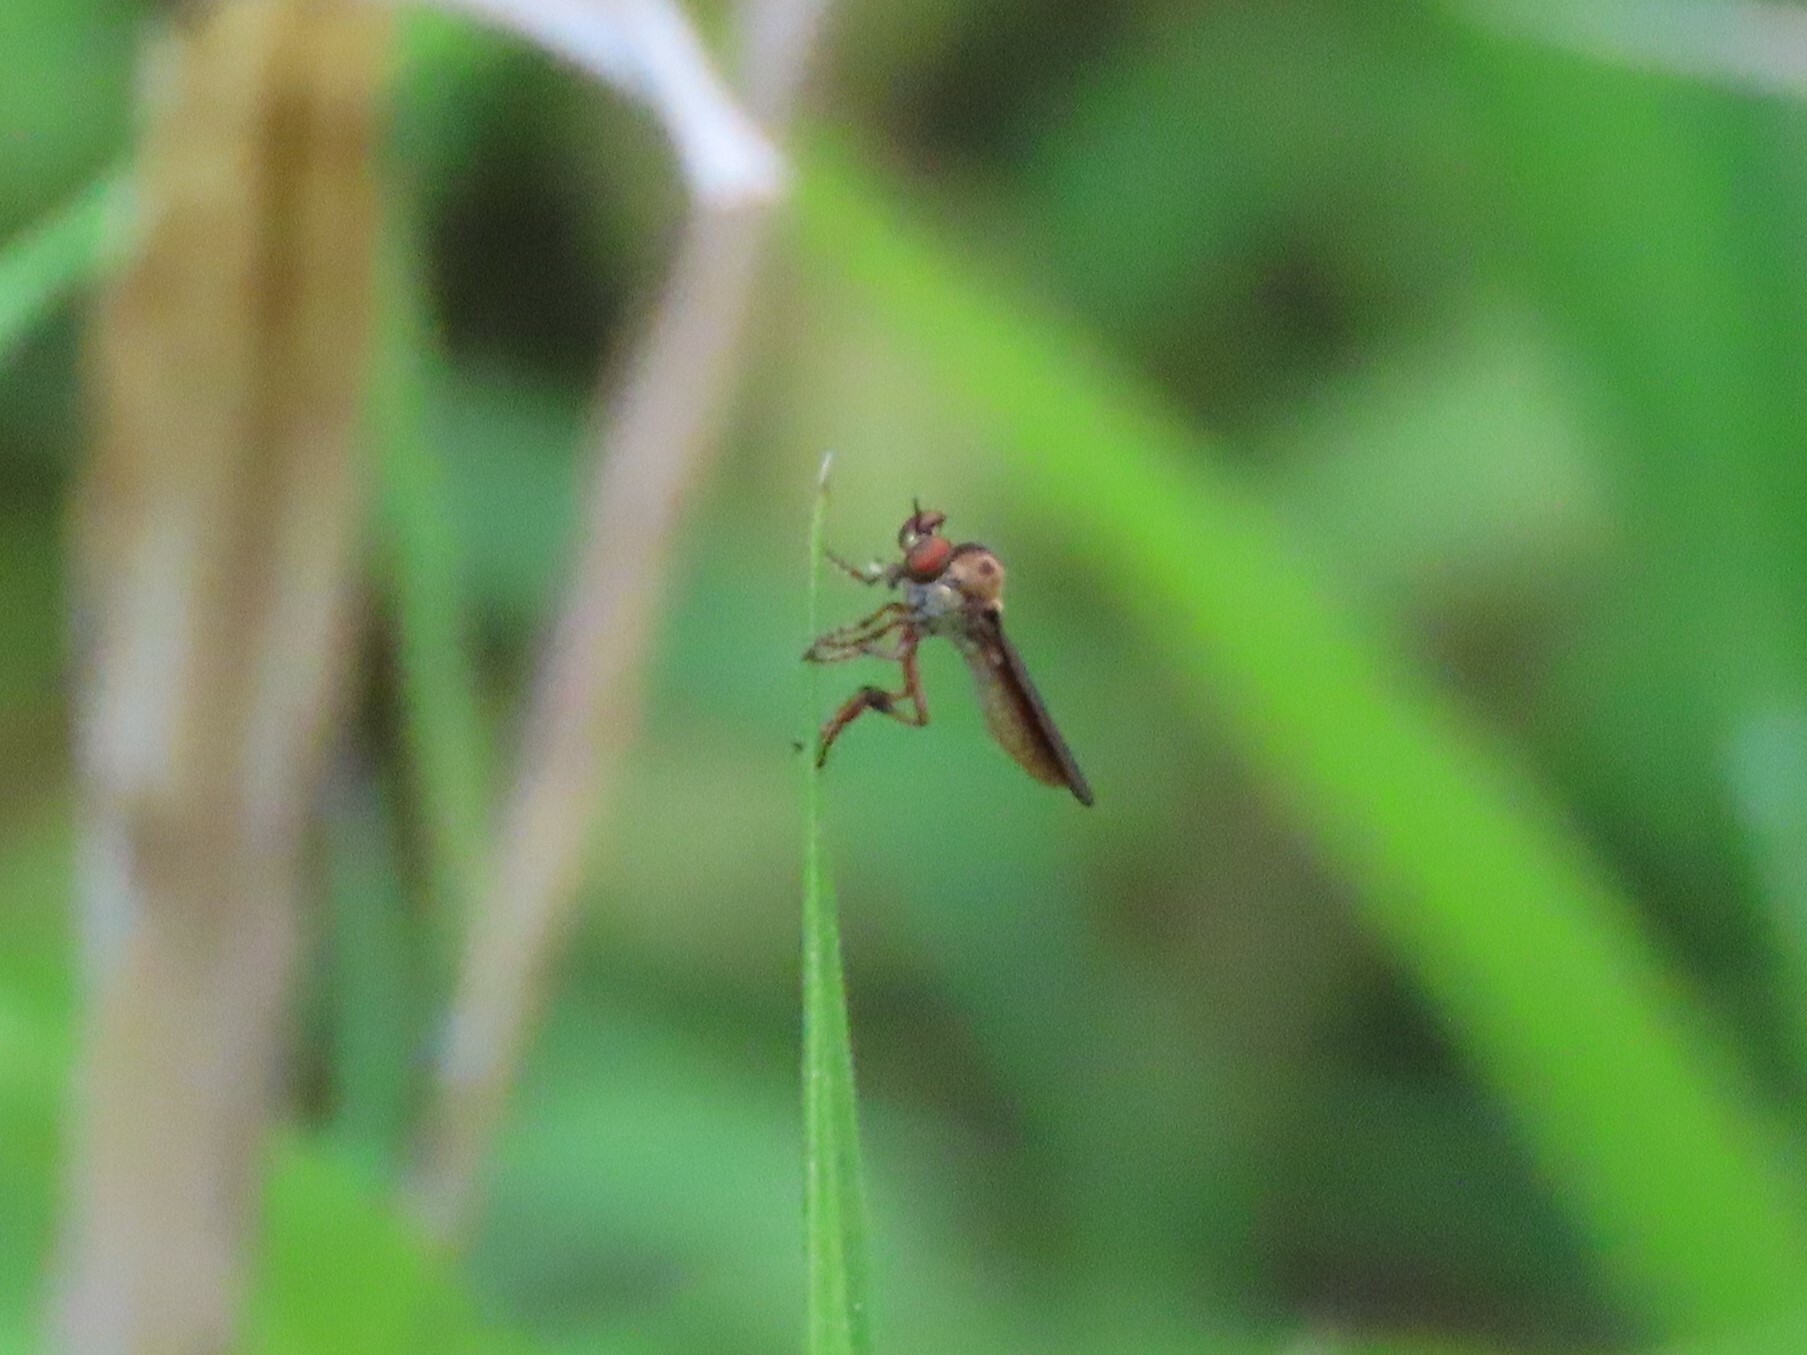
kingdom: Animalia
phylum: Arthropoda
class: Insecta
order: Diptera
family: Asilidae
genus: Holcocephala
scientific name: Holcocephala
